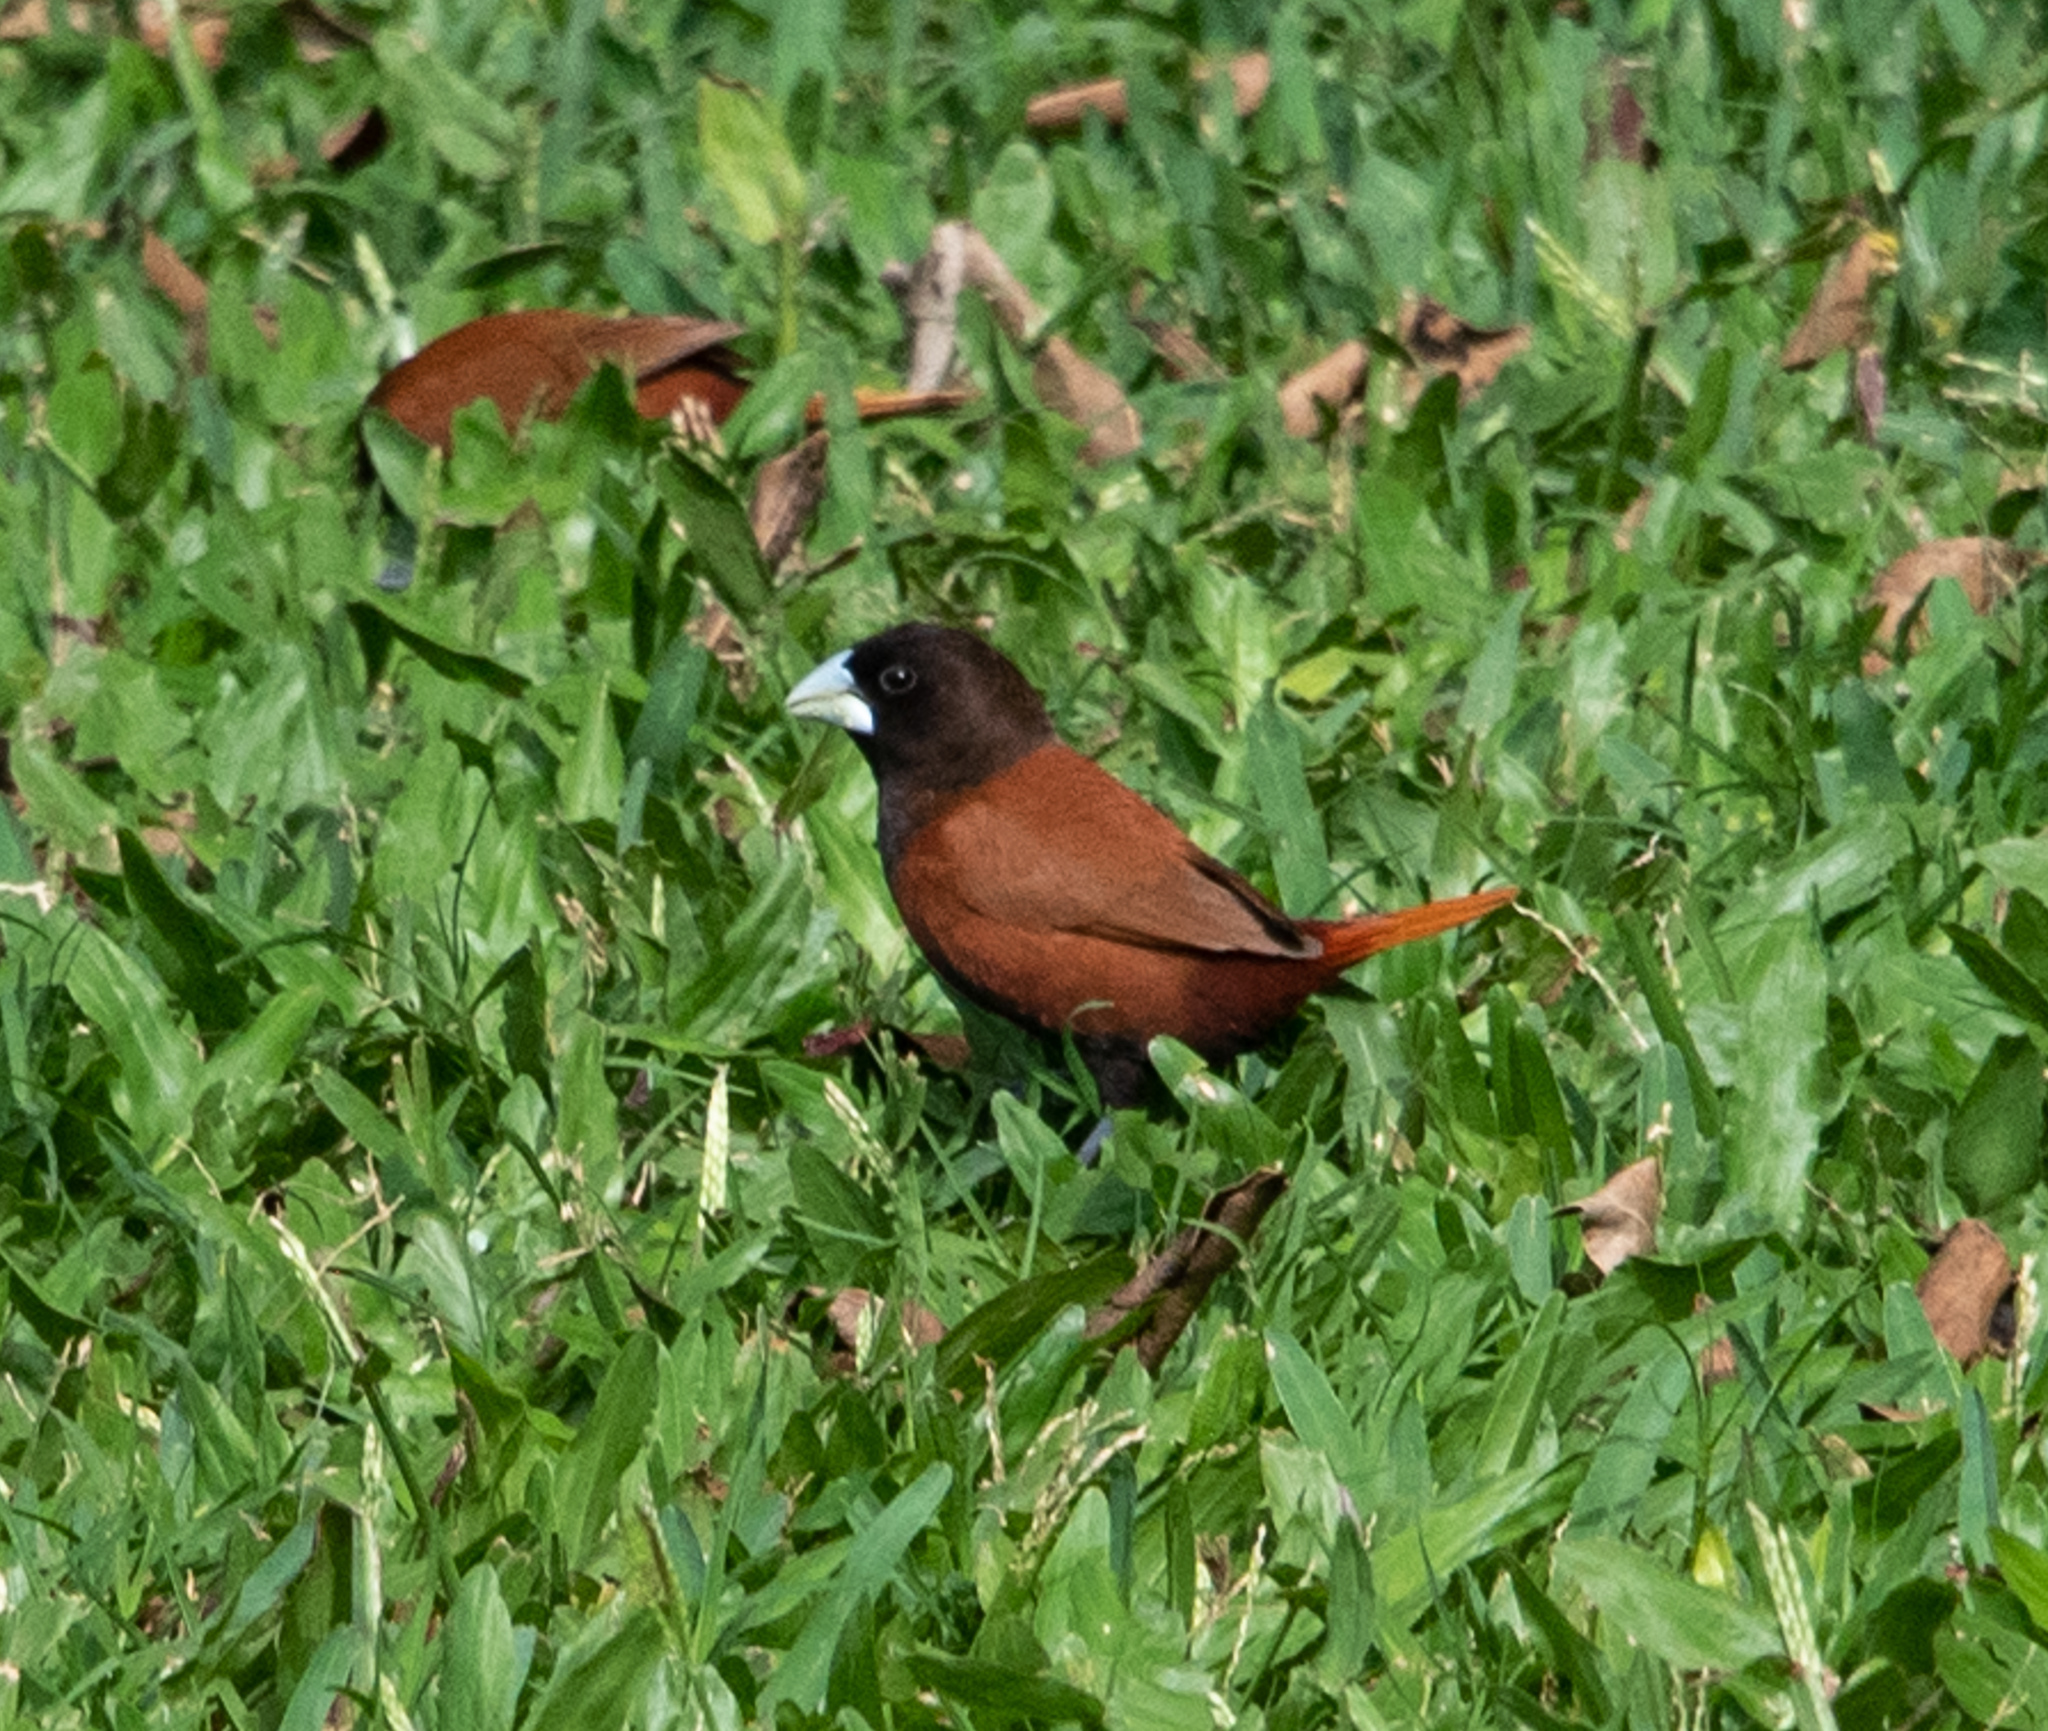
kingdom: Animalia
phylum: Chordata
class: Aves
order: Passeriformes
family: Estrildidae
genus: Lonchura
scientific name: Lonchura atricapilla
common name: Chestnut munia
